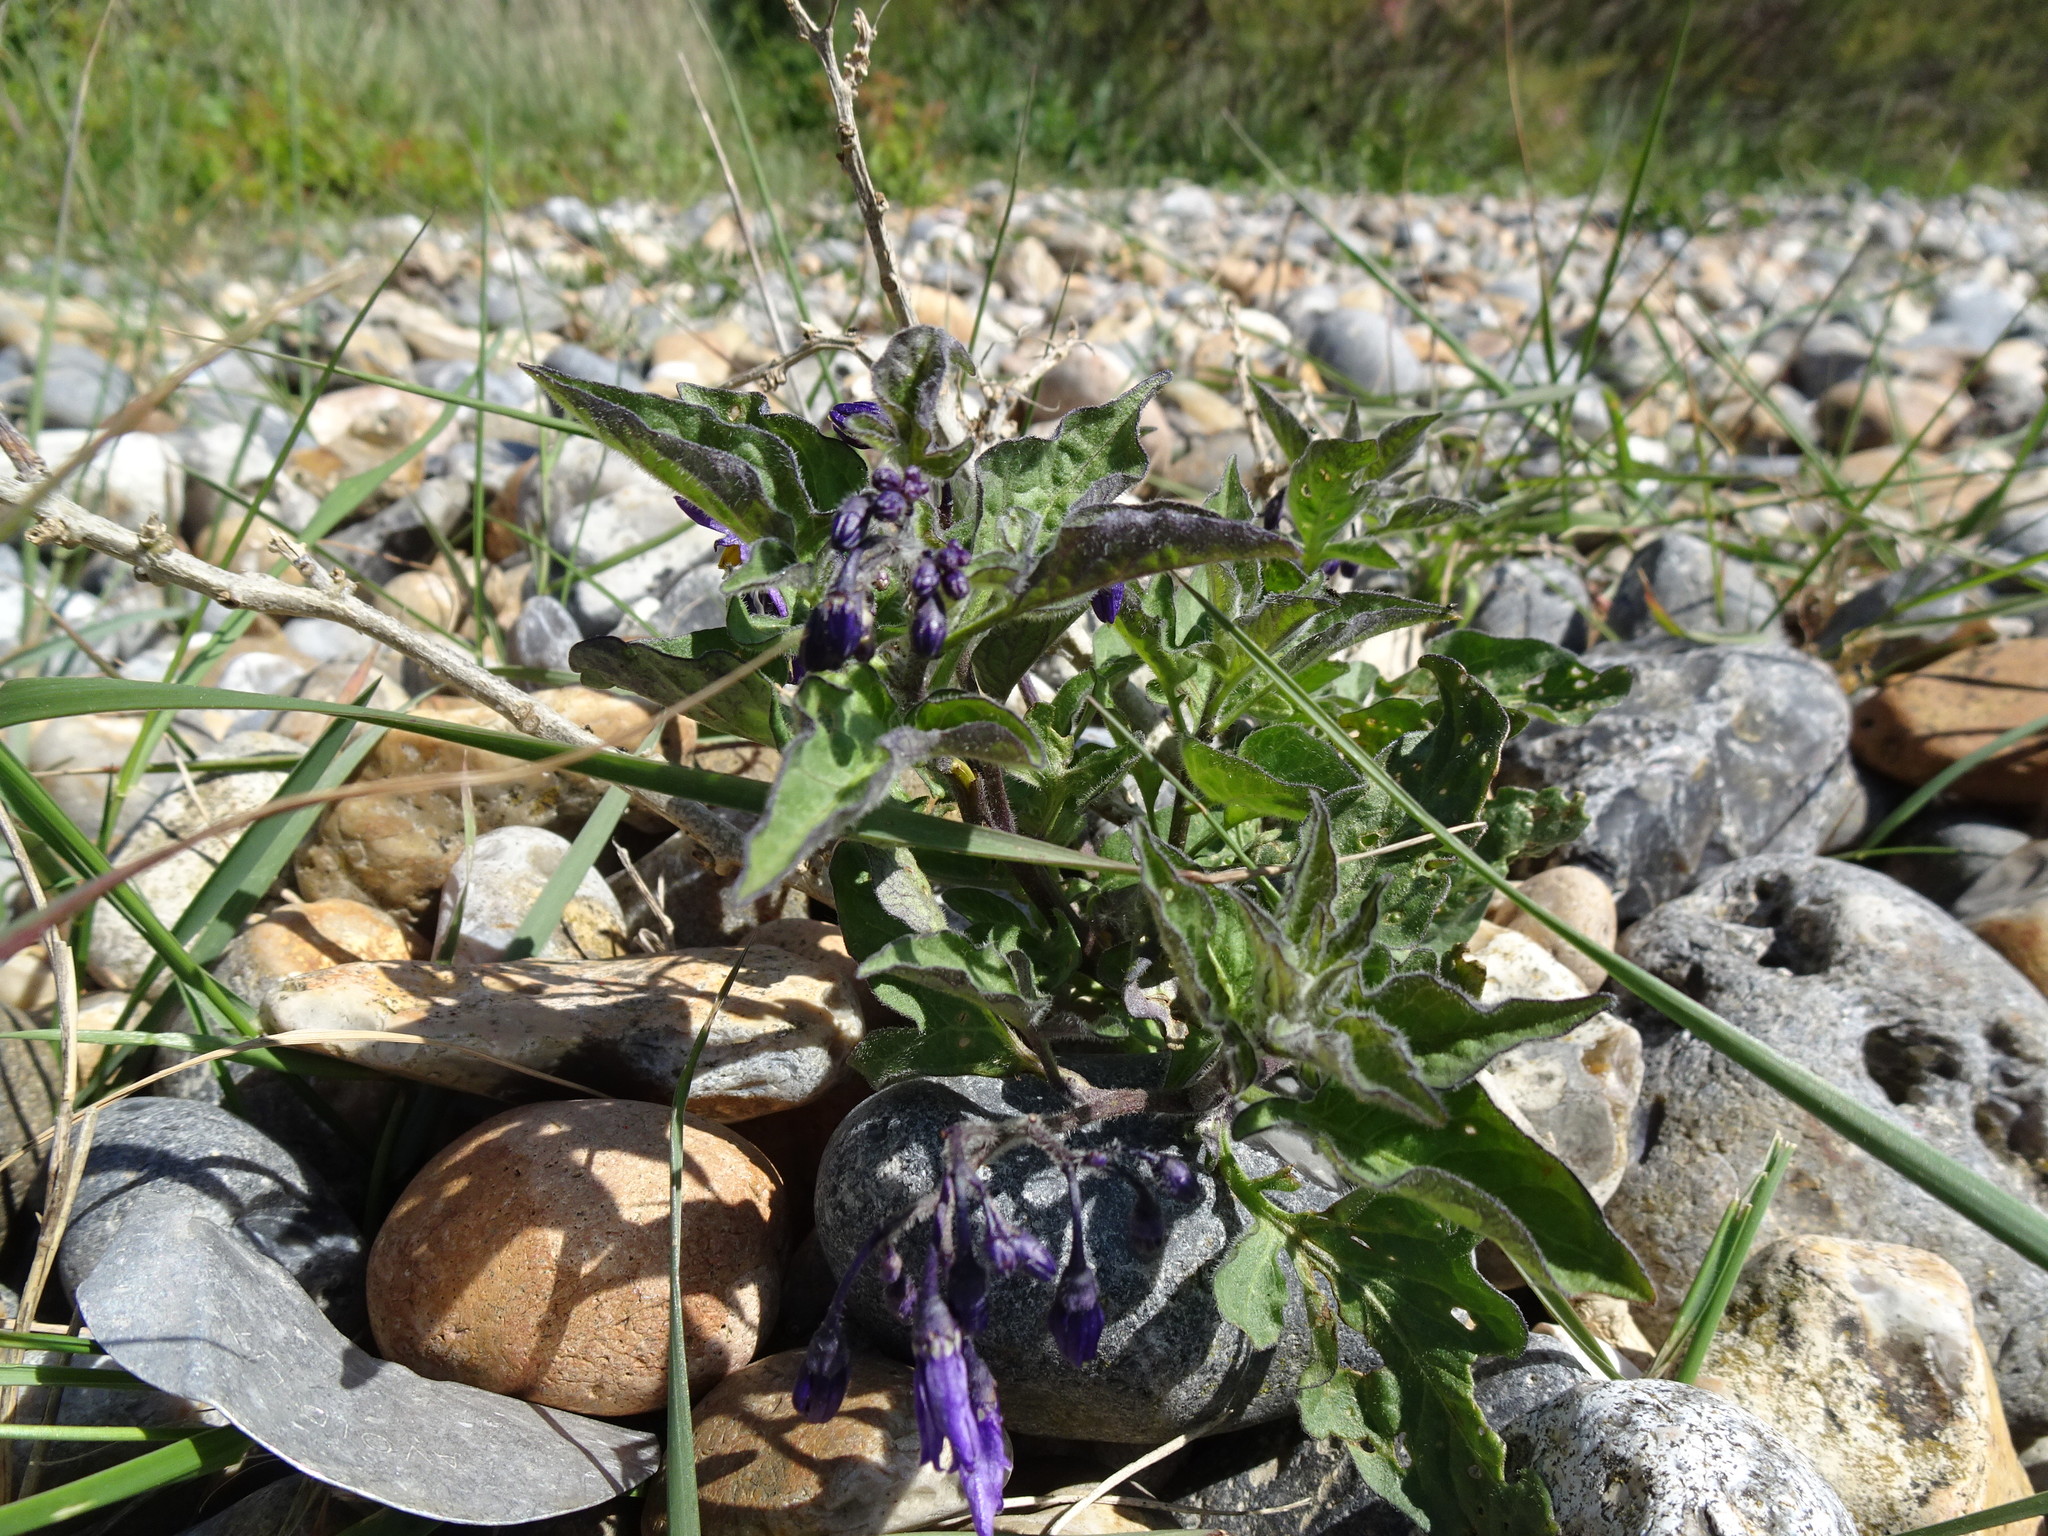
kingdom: Plantae
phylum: Tracheophyta
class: Magnoliopsida
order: Solanales
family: Solanaceae
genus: Solanum
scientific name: Solanum dulcamara
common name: Climbing nightshade
